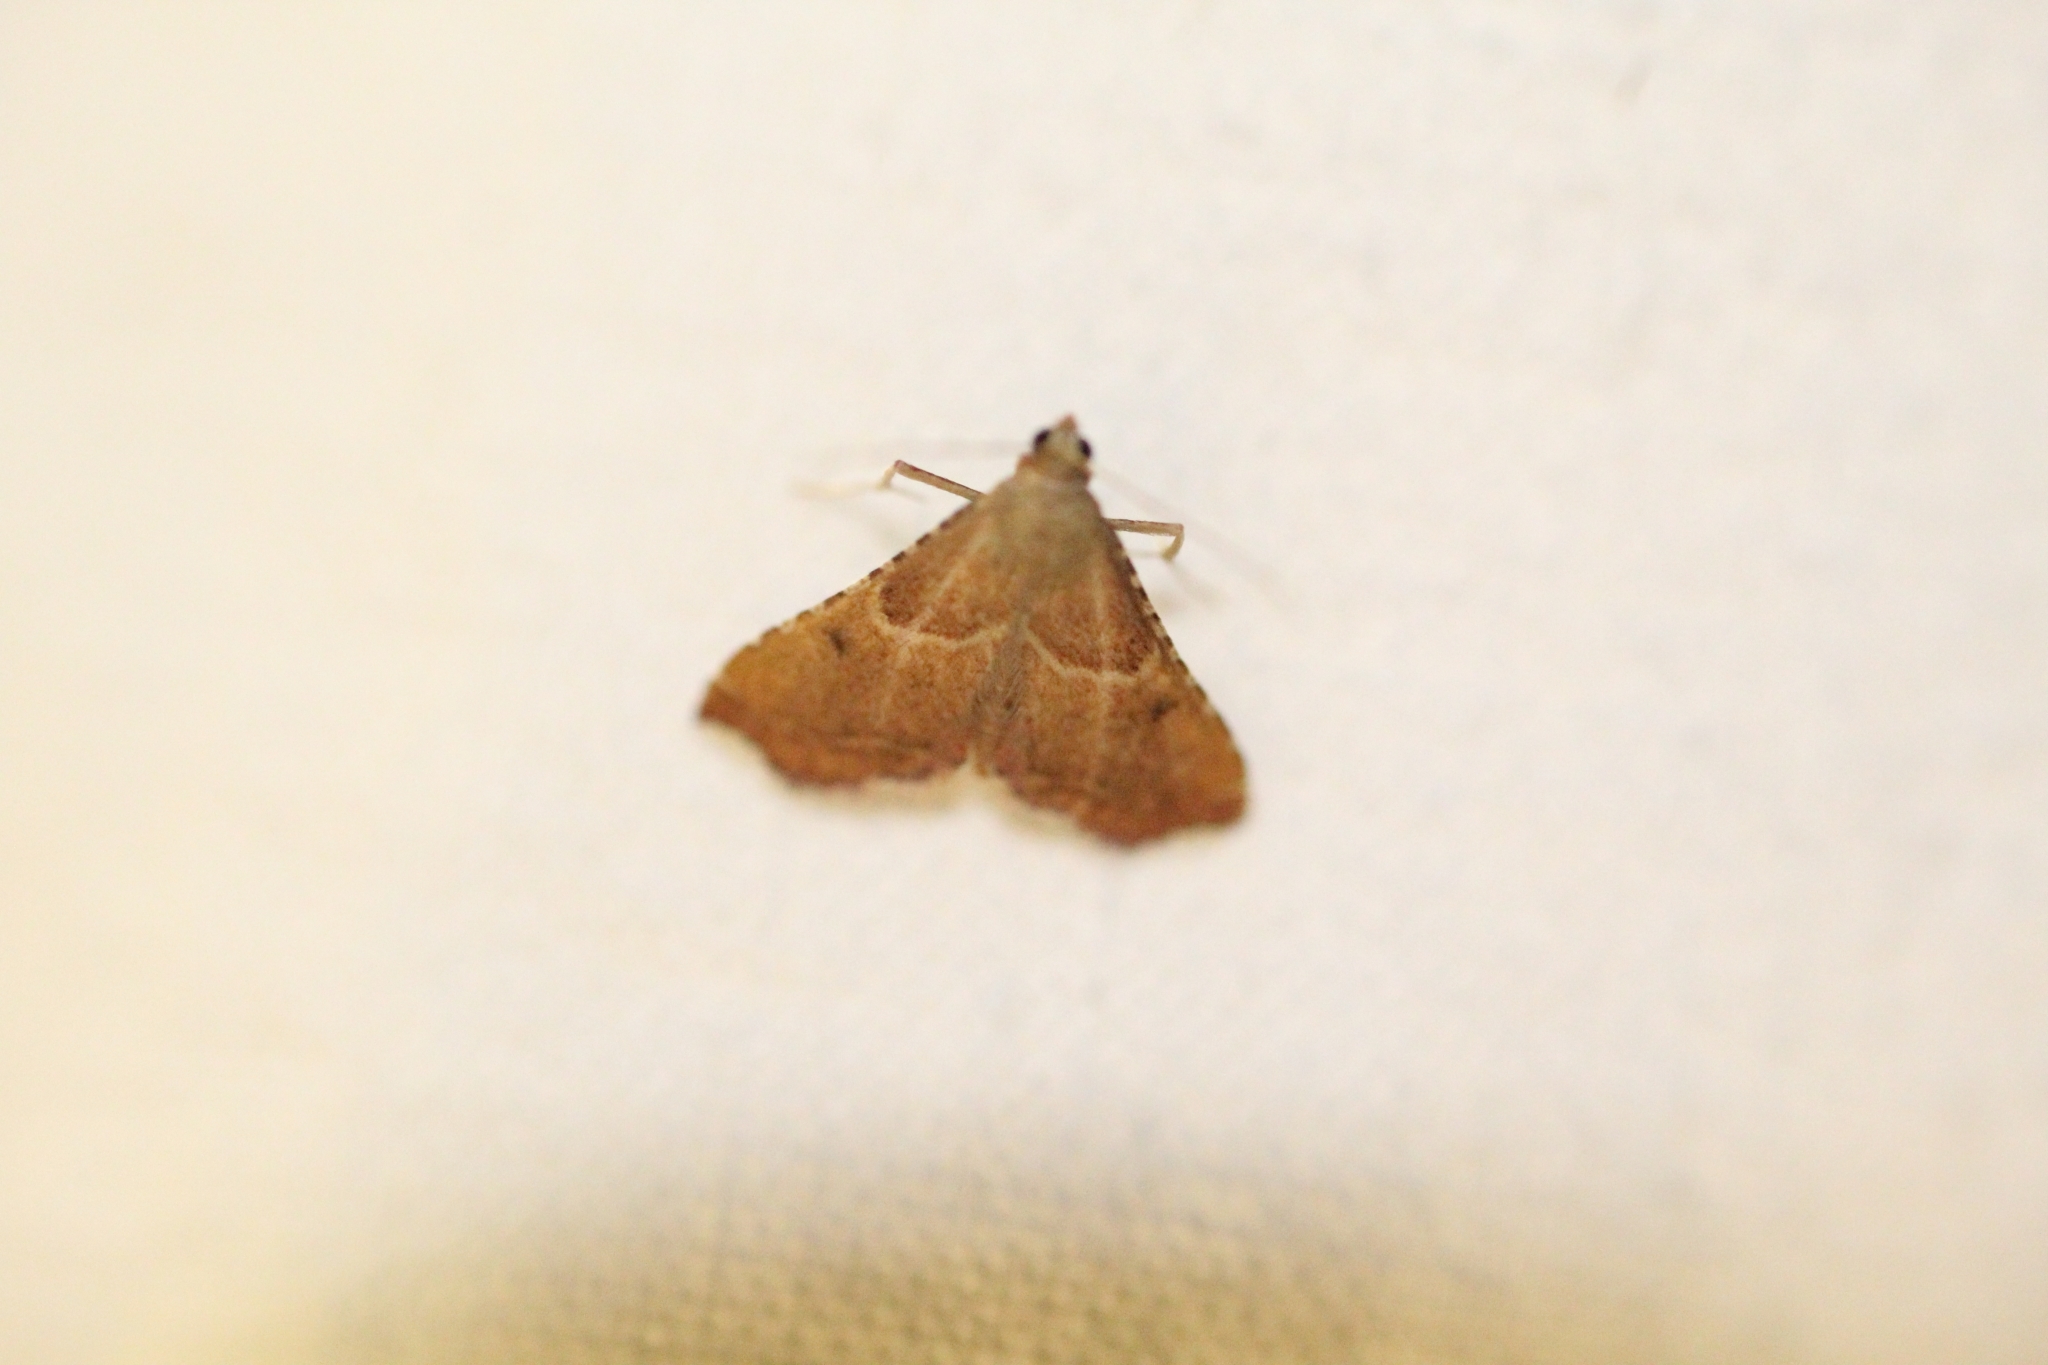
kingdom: Animalia
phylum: Arthropoda
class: Insecta
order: Lepidoptera
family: Pyralidae
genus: Endotricha
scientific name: Endotricha flammealis
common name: Rosy tabby
